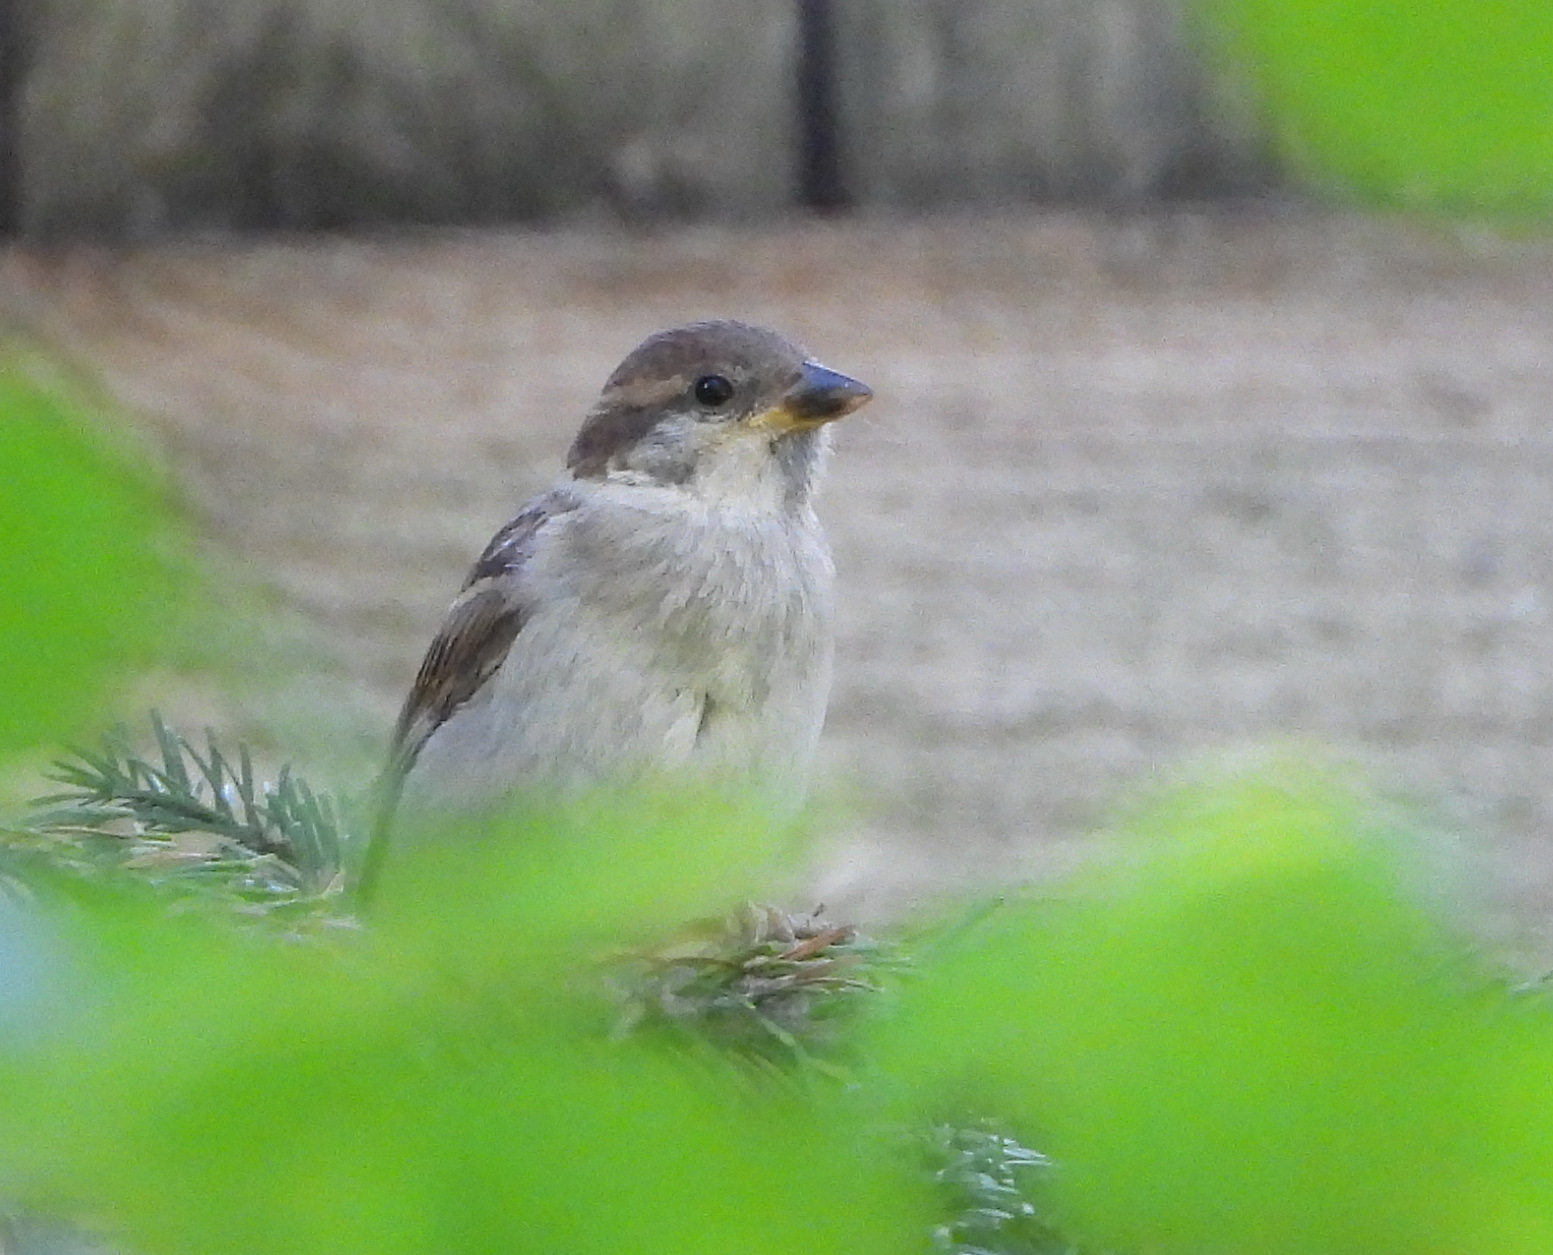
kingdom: Animalia
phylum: Chordata
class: Aves
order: Passeriformes
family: Passeridae
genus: Passer
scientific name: Passer domesticus
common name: House sparrow
